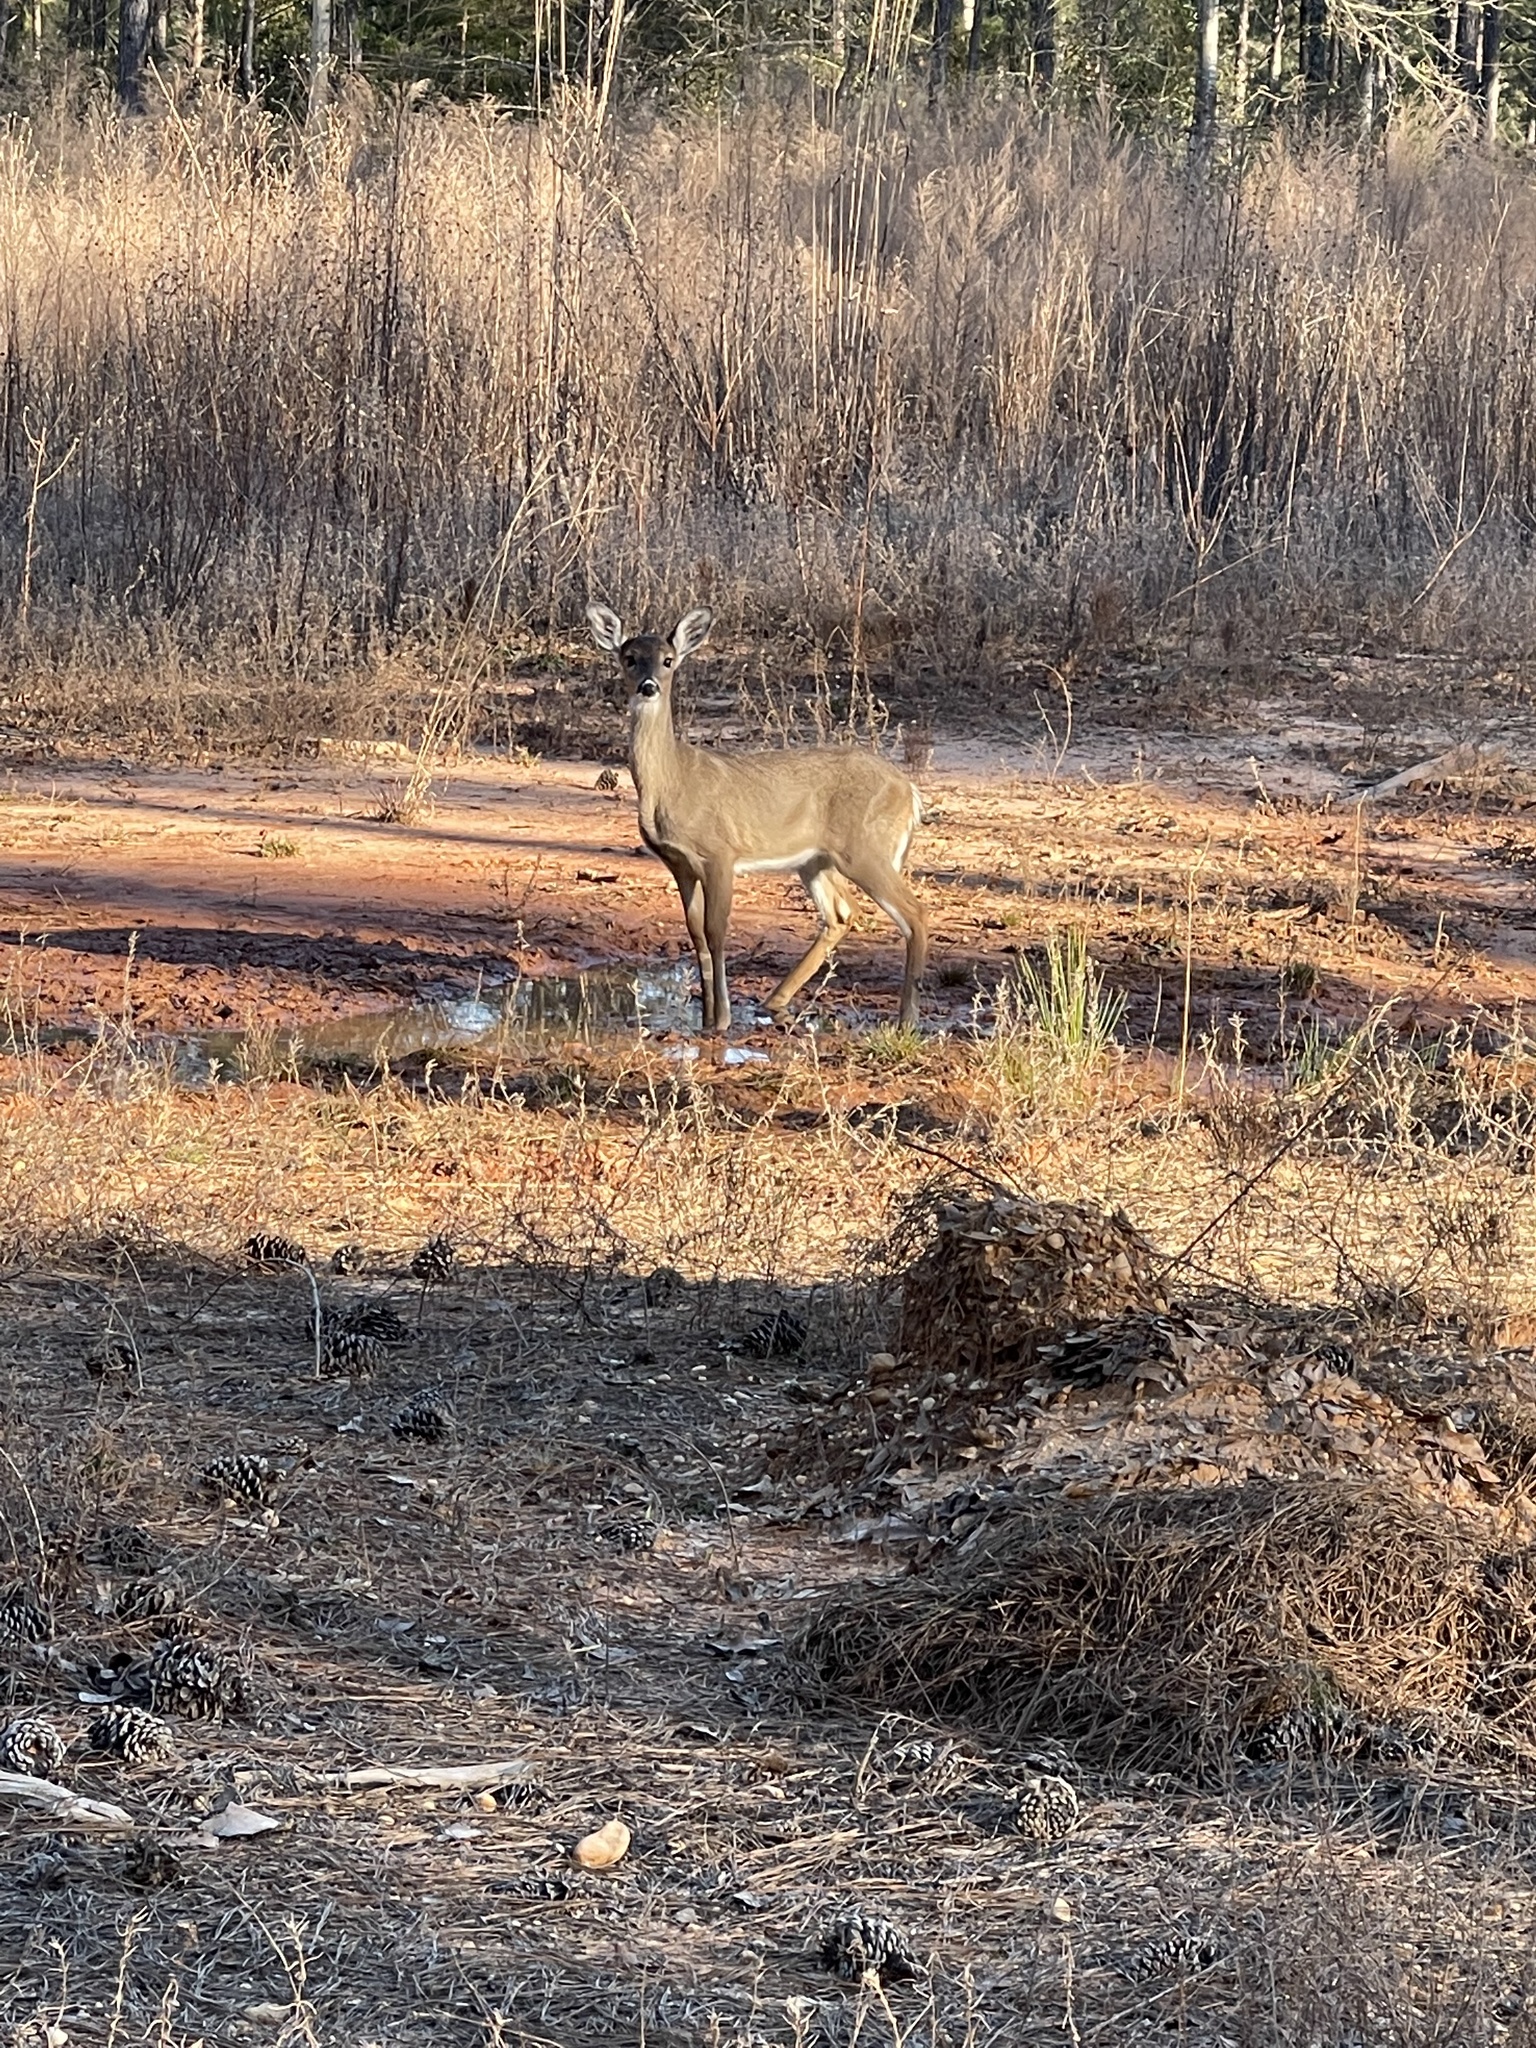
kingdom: Animalia
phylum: Chordata
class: Mammalia
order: Artiodactyla
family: Cervidae
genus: Odocoileus
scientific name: Odocoileus virginianus
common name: White-tailed deer
